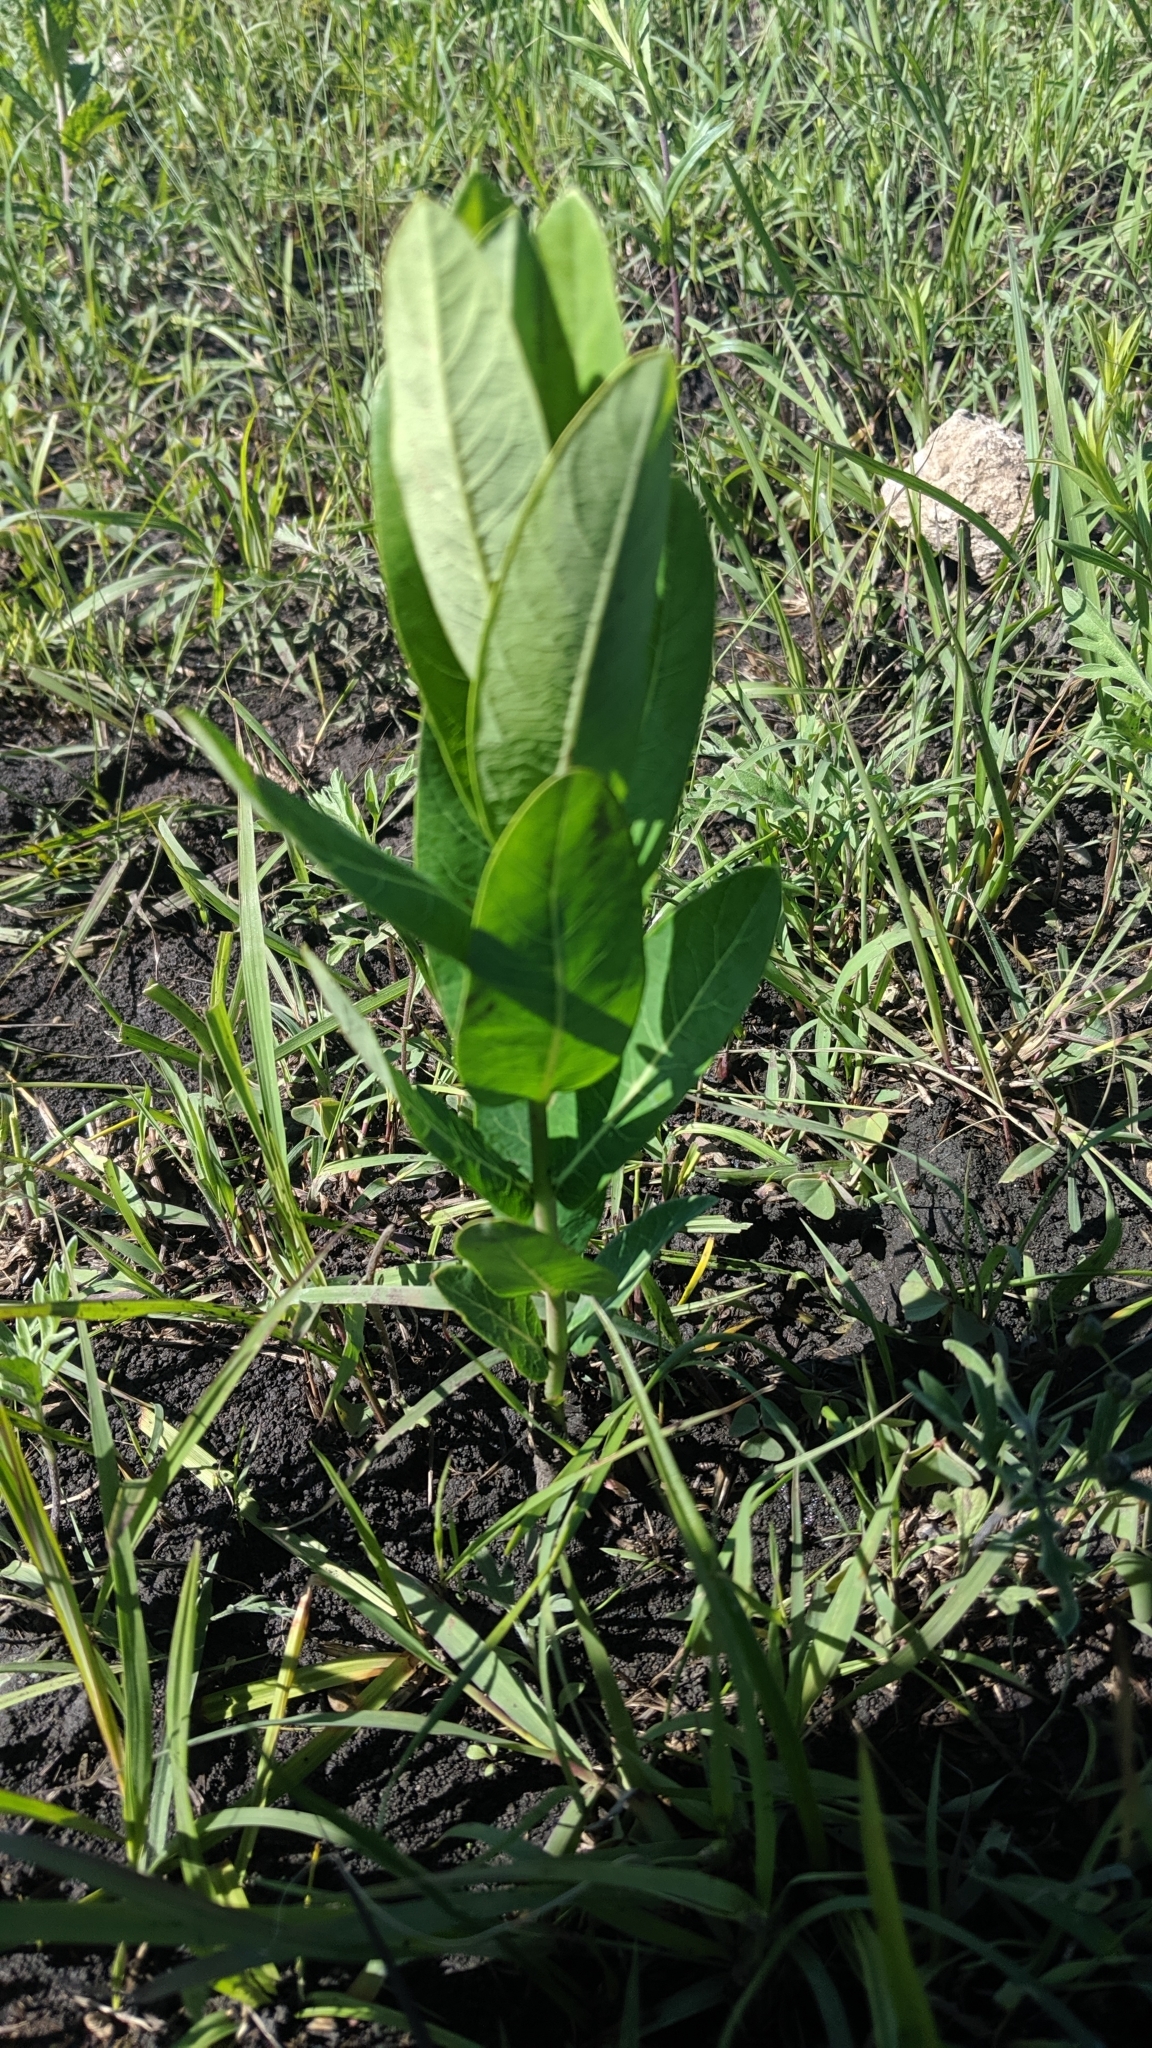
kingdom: Plantae
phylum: Tracheophyta
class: Magnoliopsida
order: Gentianales
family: Apocynaceae
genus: Apocynum
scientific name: Apocynum cannabinum
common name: Hemp dogbane
